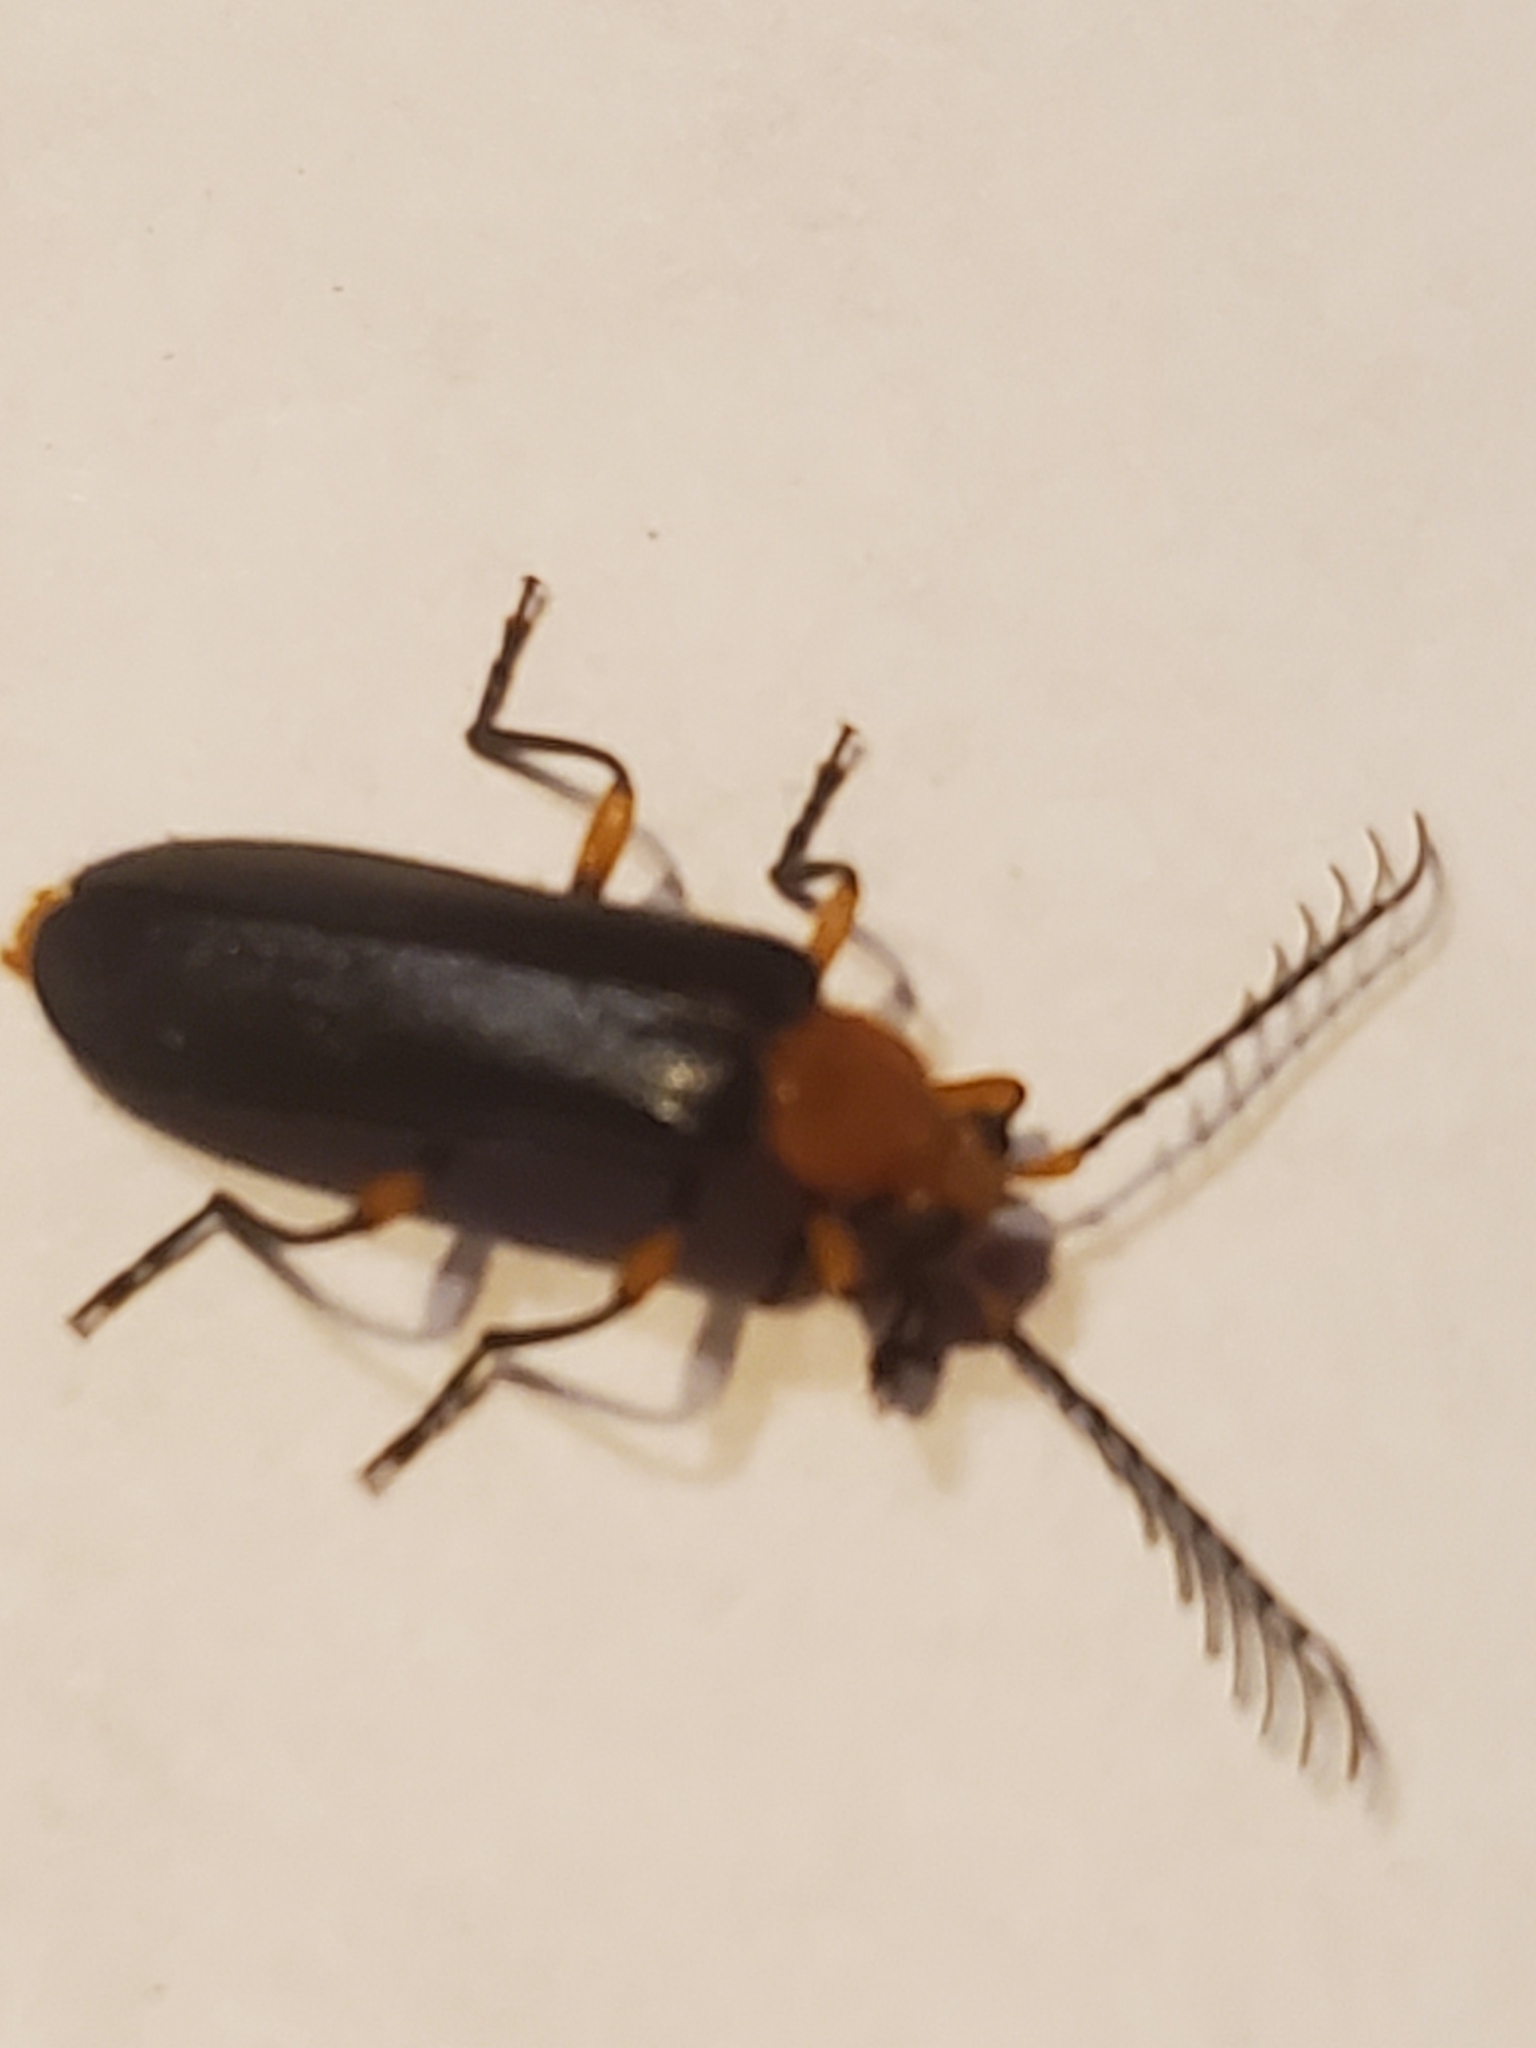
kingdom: Animalia
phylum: Arthropoda
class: Insecta
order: Coleoptera
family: Pyrochroidae
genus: Neopyrochroa
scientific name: Neopyrochroa femoralis
